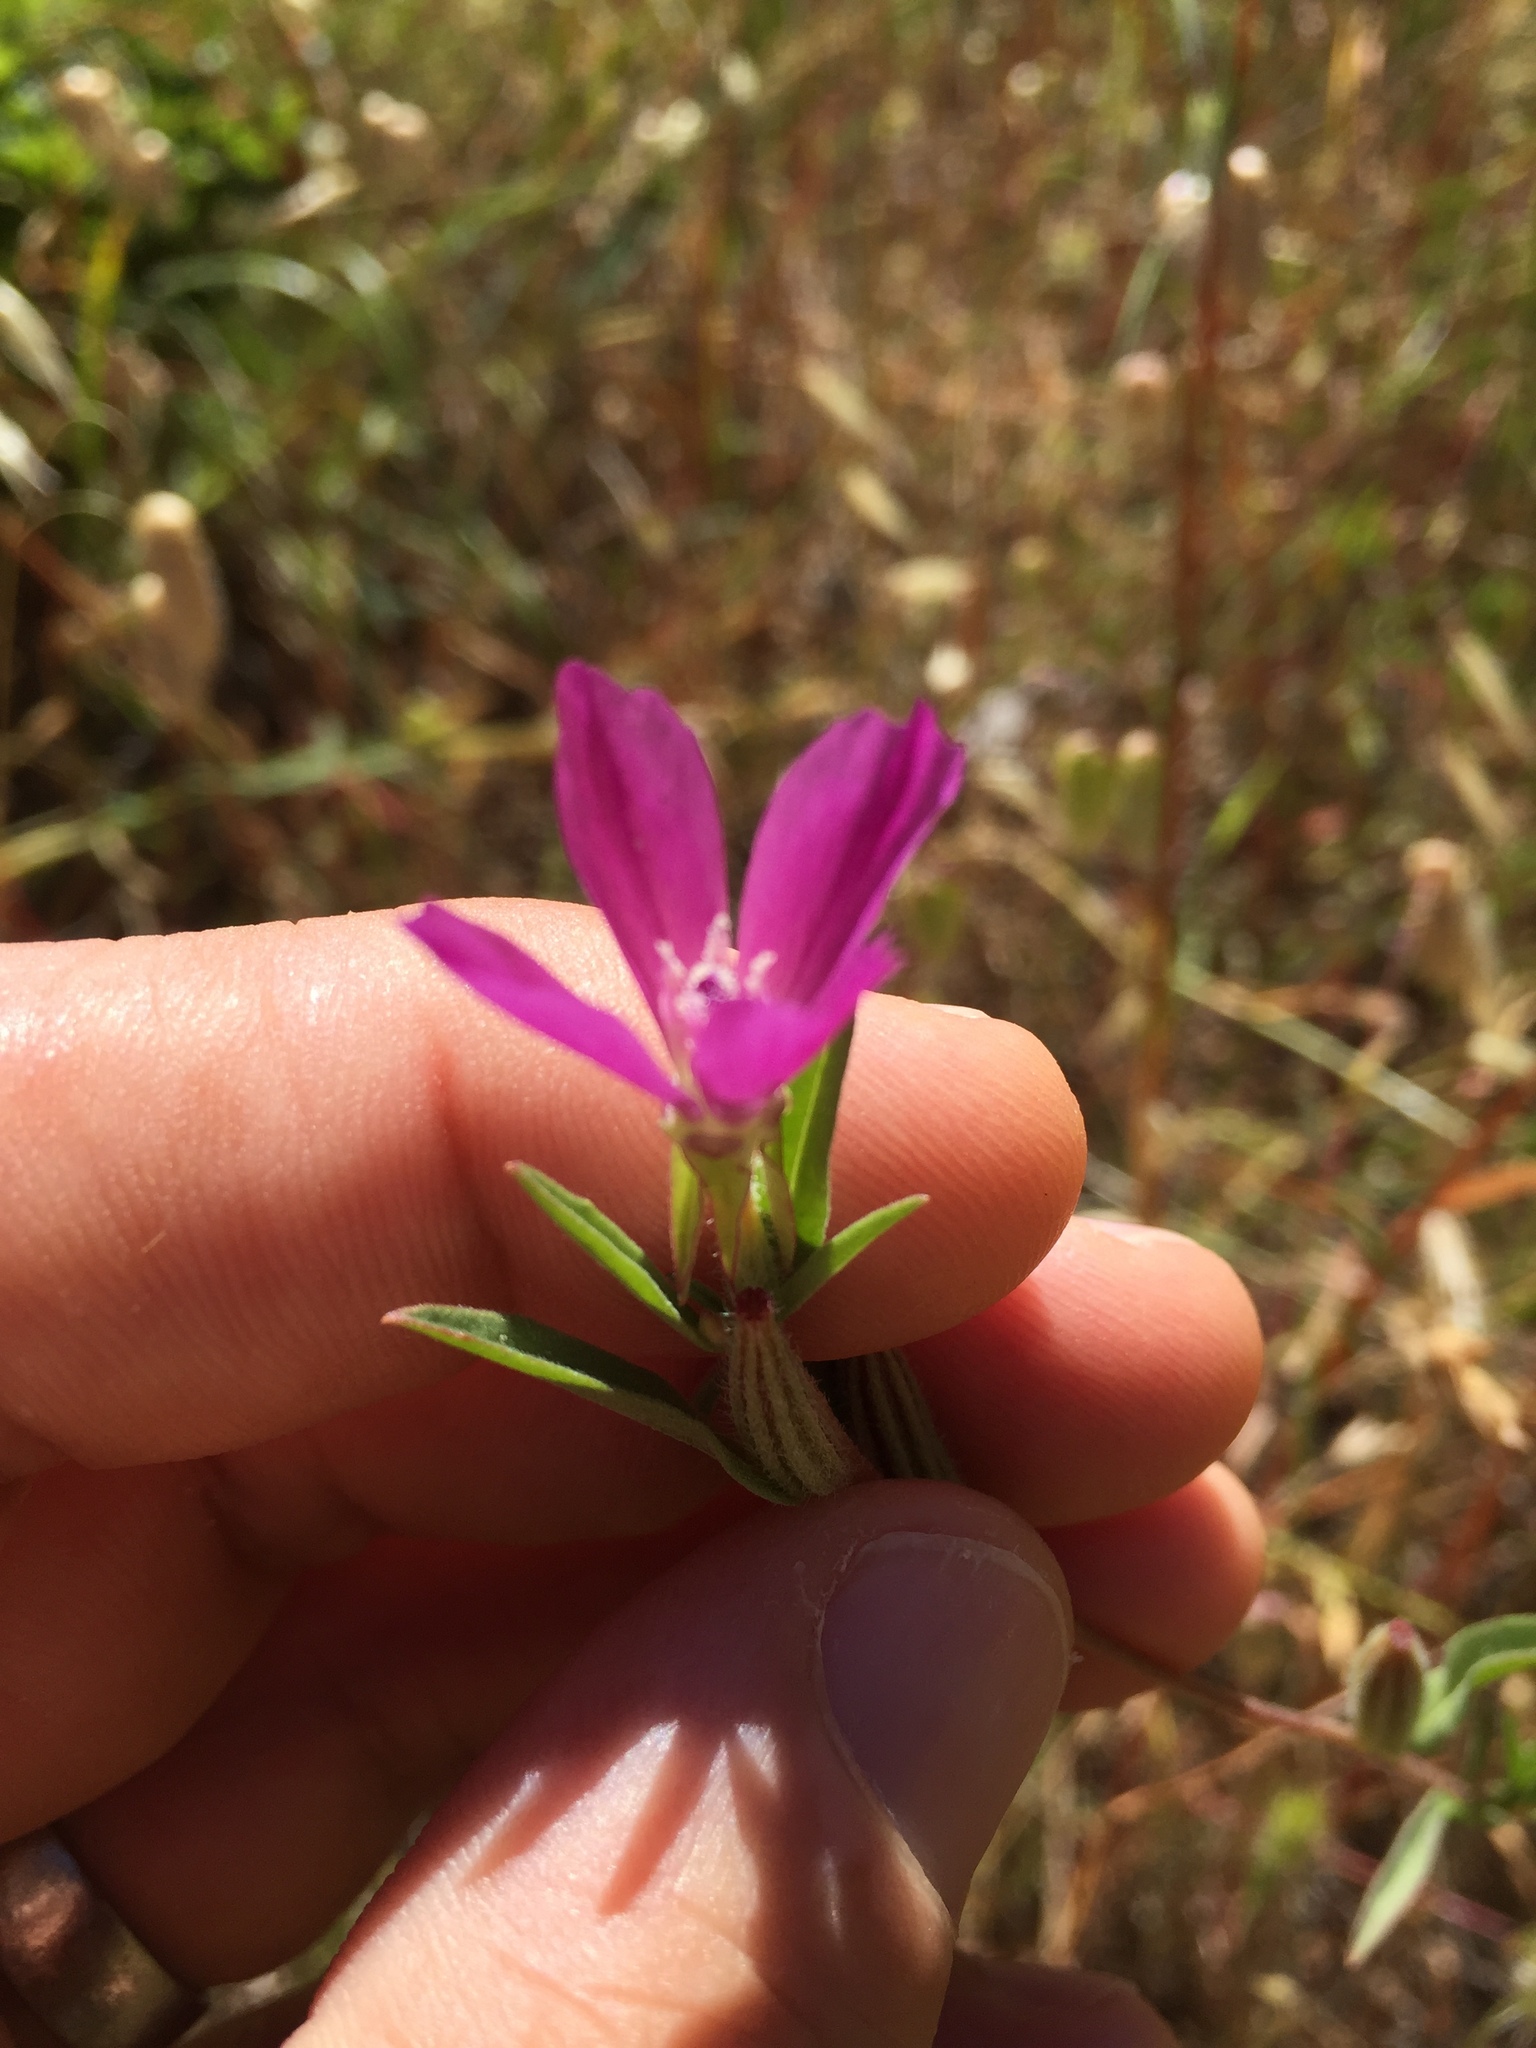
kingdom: Plantae
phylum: Tracheophyta
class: Magnoliopsida
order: Myrtales
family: Onagraceae
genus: Clarkia
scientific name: Clarkia purpurea
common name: Purple clarkia
